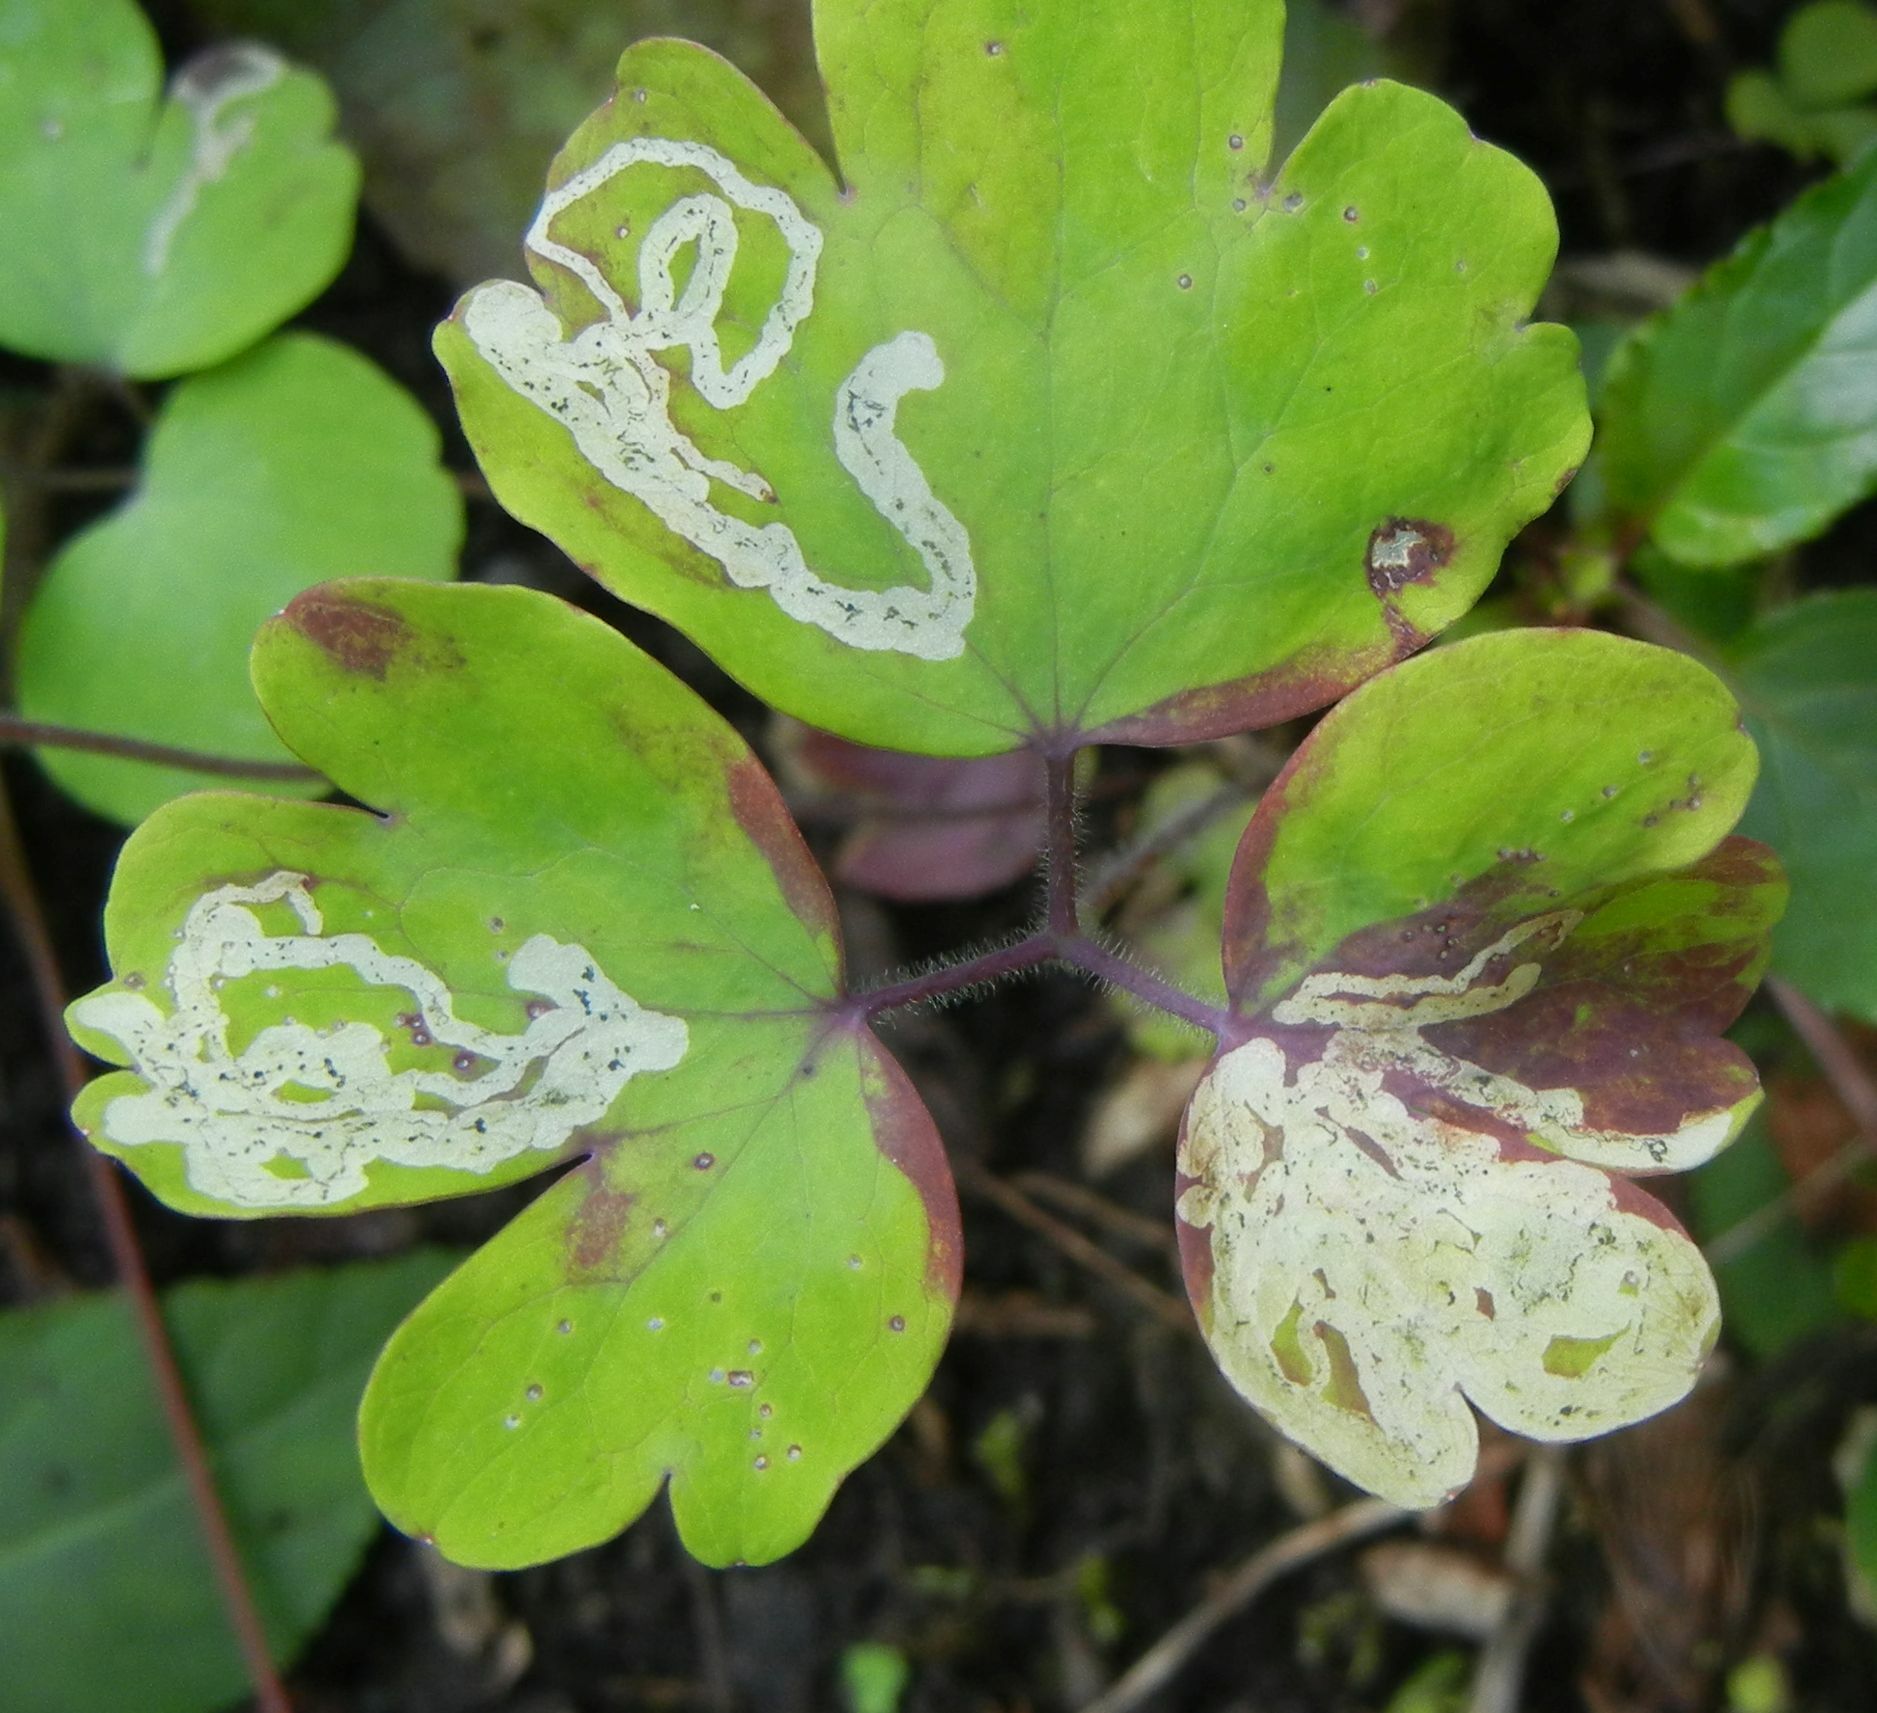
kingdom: Animalia
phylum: Arthropoda
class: Insecta
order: Diptera
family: Agromyzidae
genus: Phytomyza
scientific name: Phytomyza ancholiae
